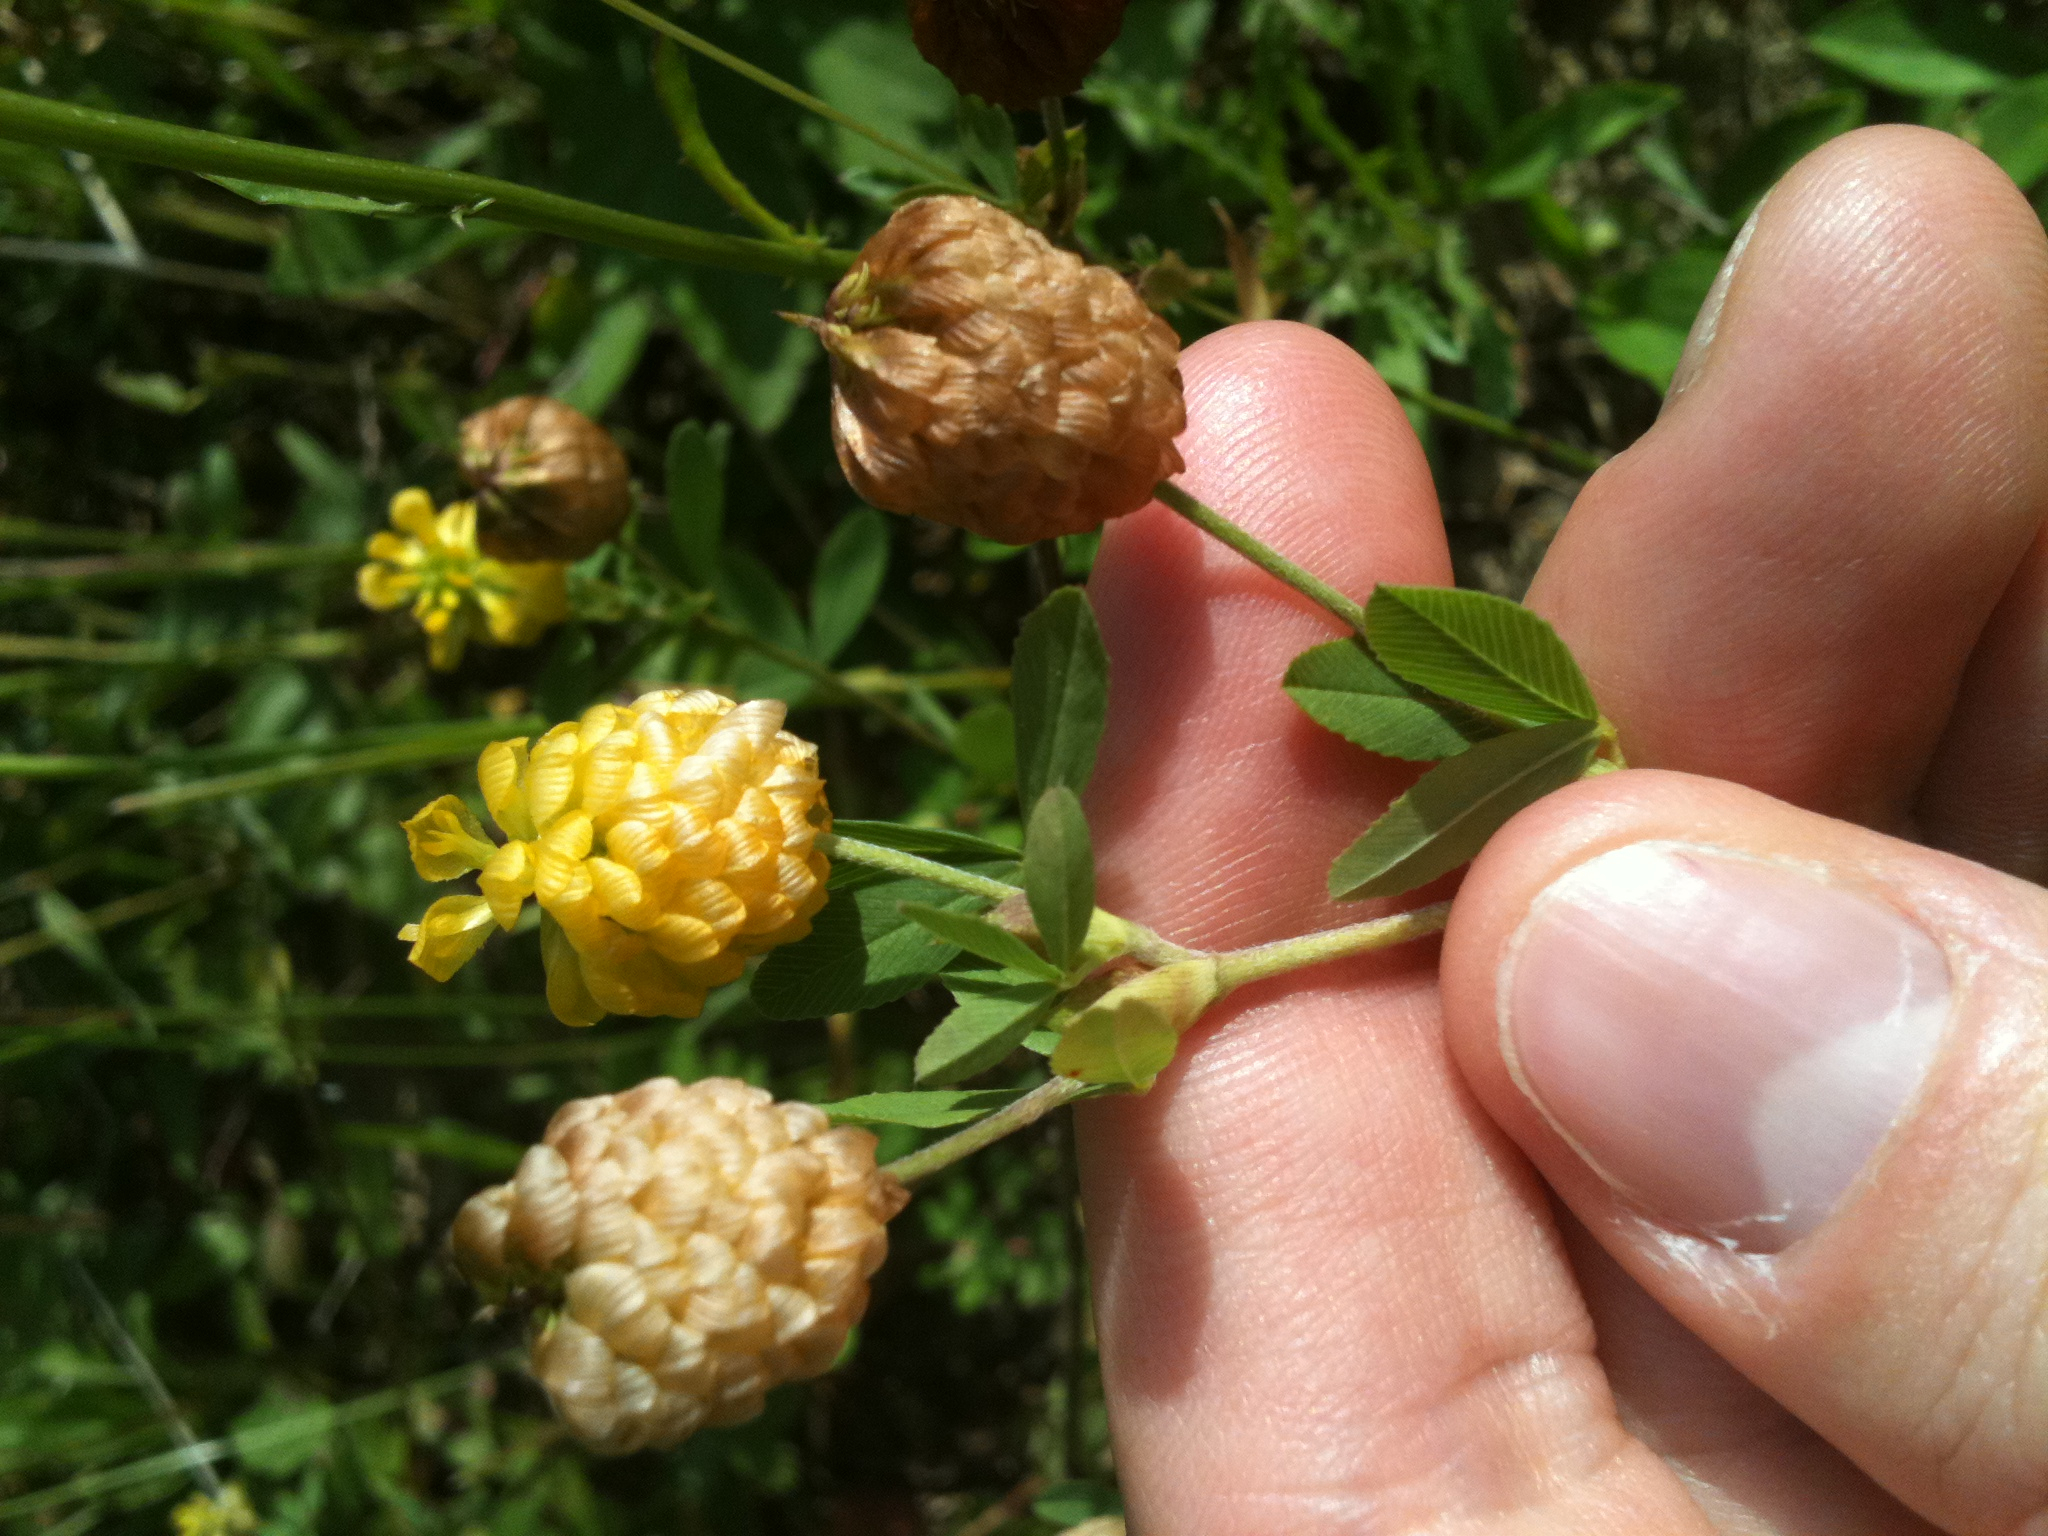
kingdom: Plantae
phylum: Tracheophyta
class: Magnoliopsida
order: Fabales
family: Fabaceae
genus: Trifolium
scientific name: Trifolium aureum
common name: Golden clover
